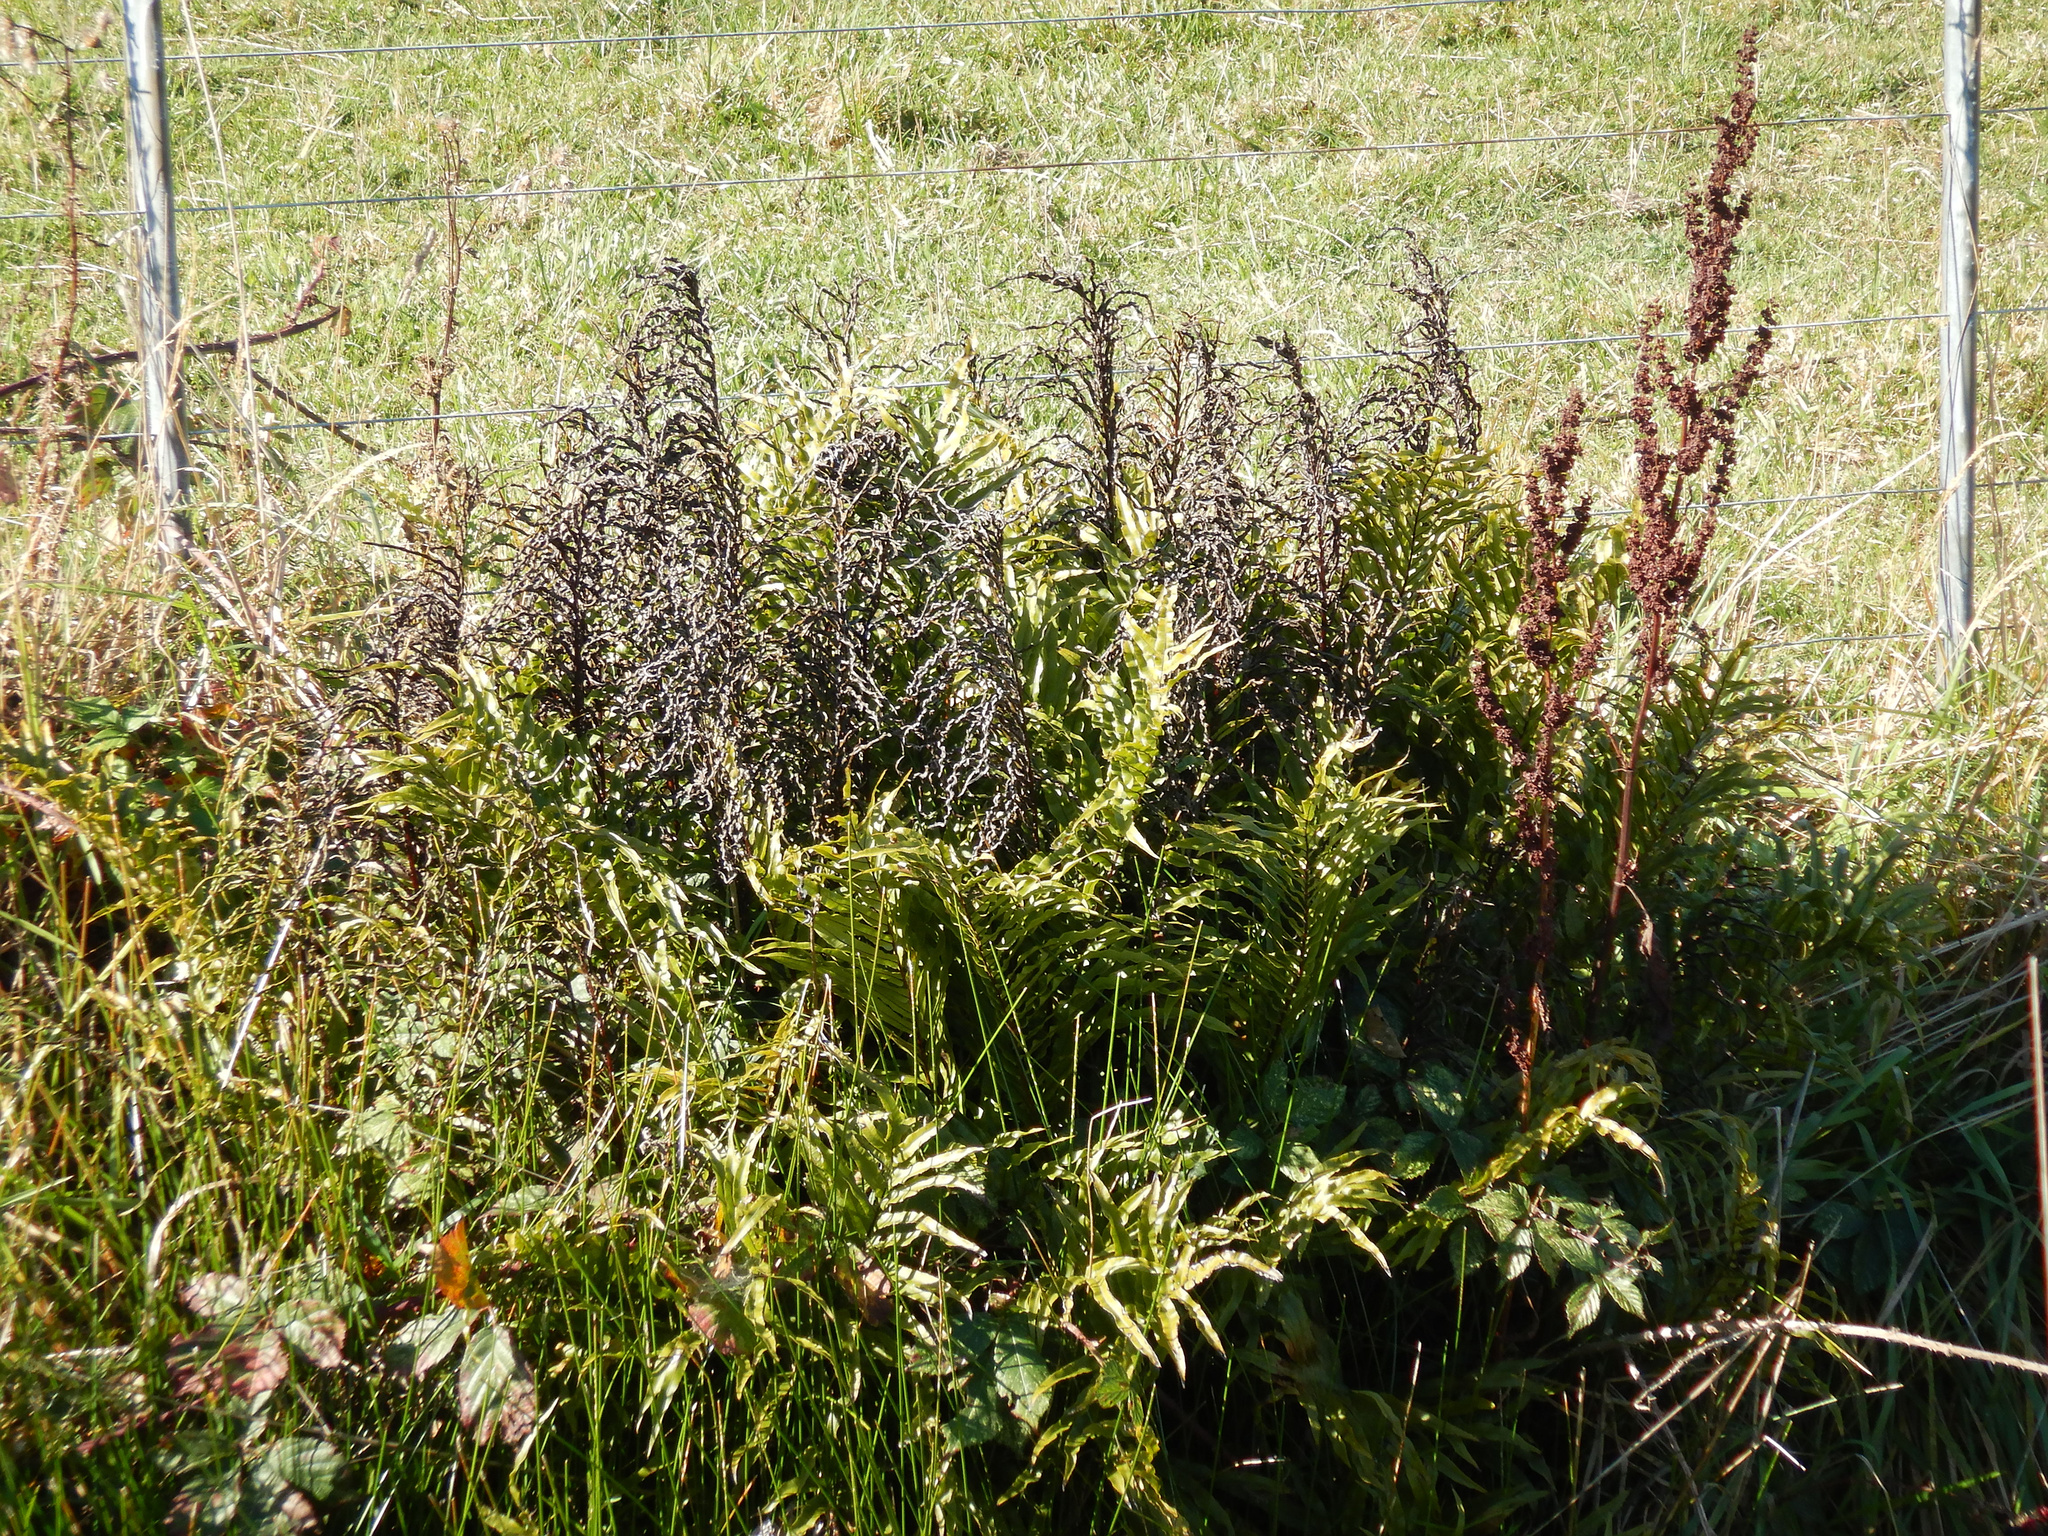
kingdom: Plantae
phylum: Tracheophyta
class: Polypodiopsida
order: Polypodiales
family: Blechnaceae
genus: Parablechnum
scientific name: Parablechnum minus
